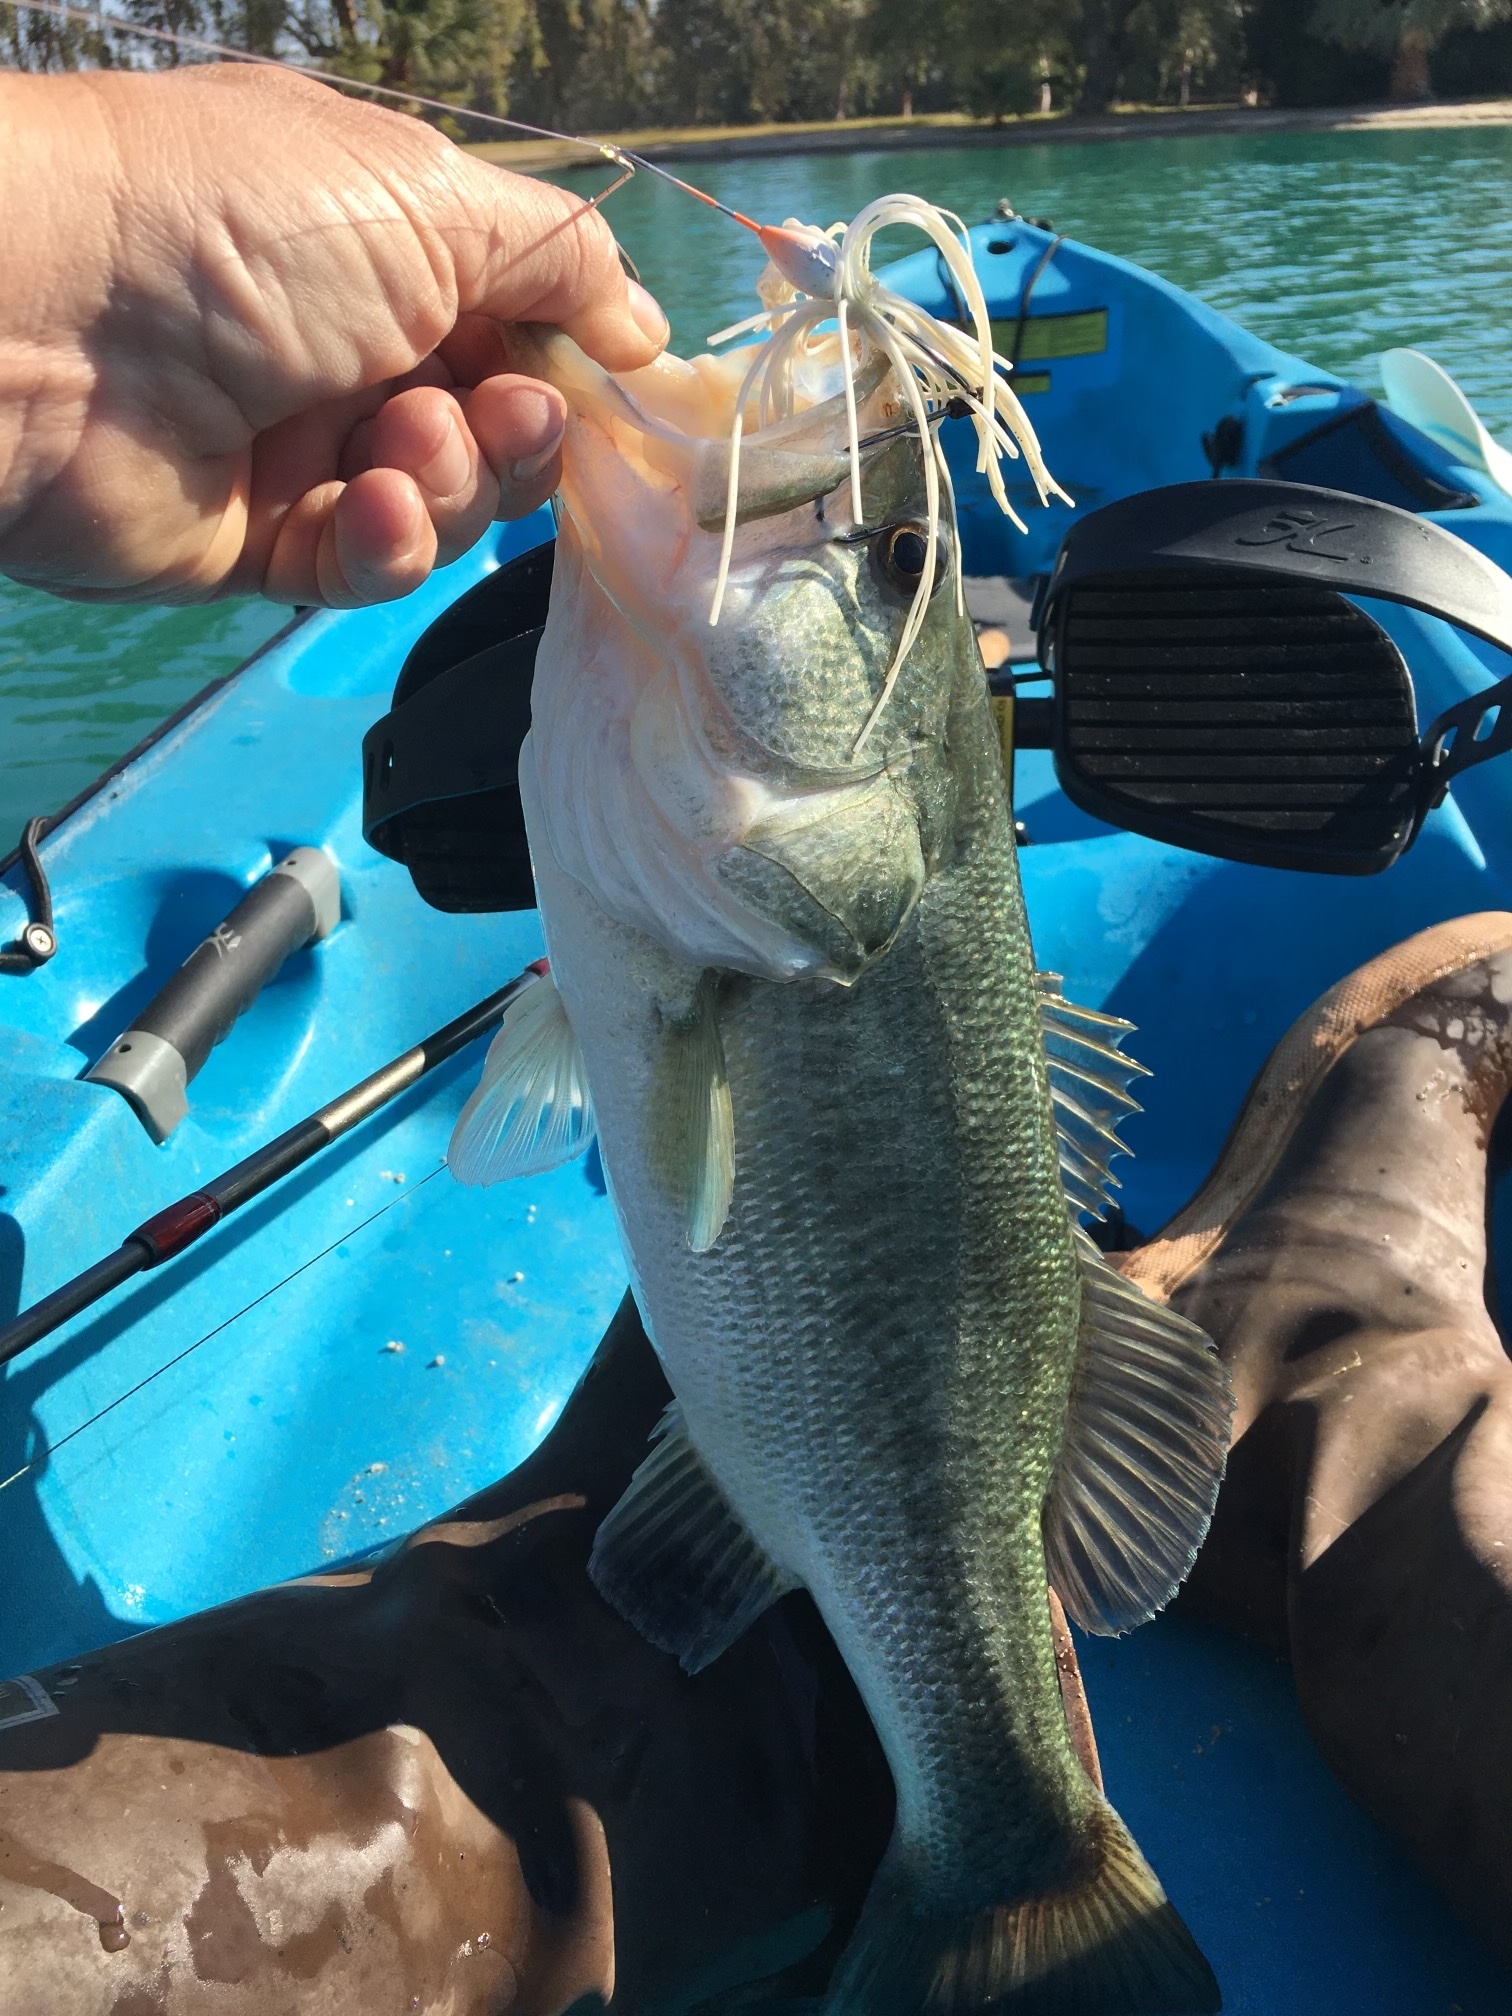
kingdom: Animalia
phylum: Chordata
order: Perciformes
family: Centrarchidae
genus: Micropterus
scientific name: Micropterus
